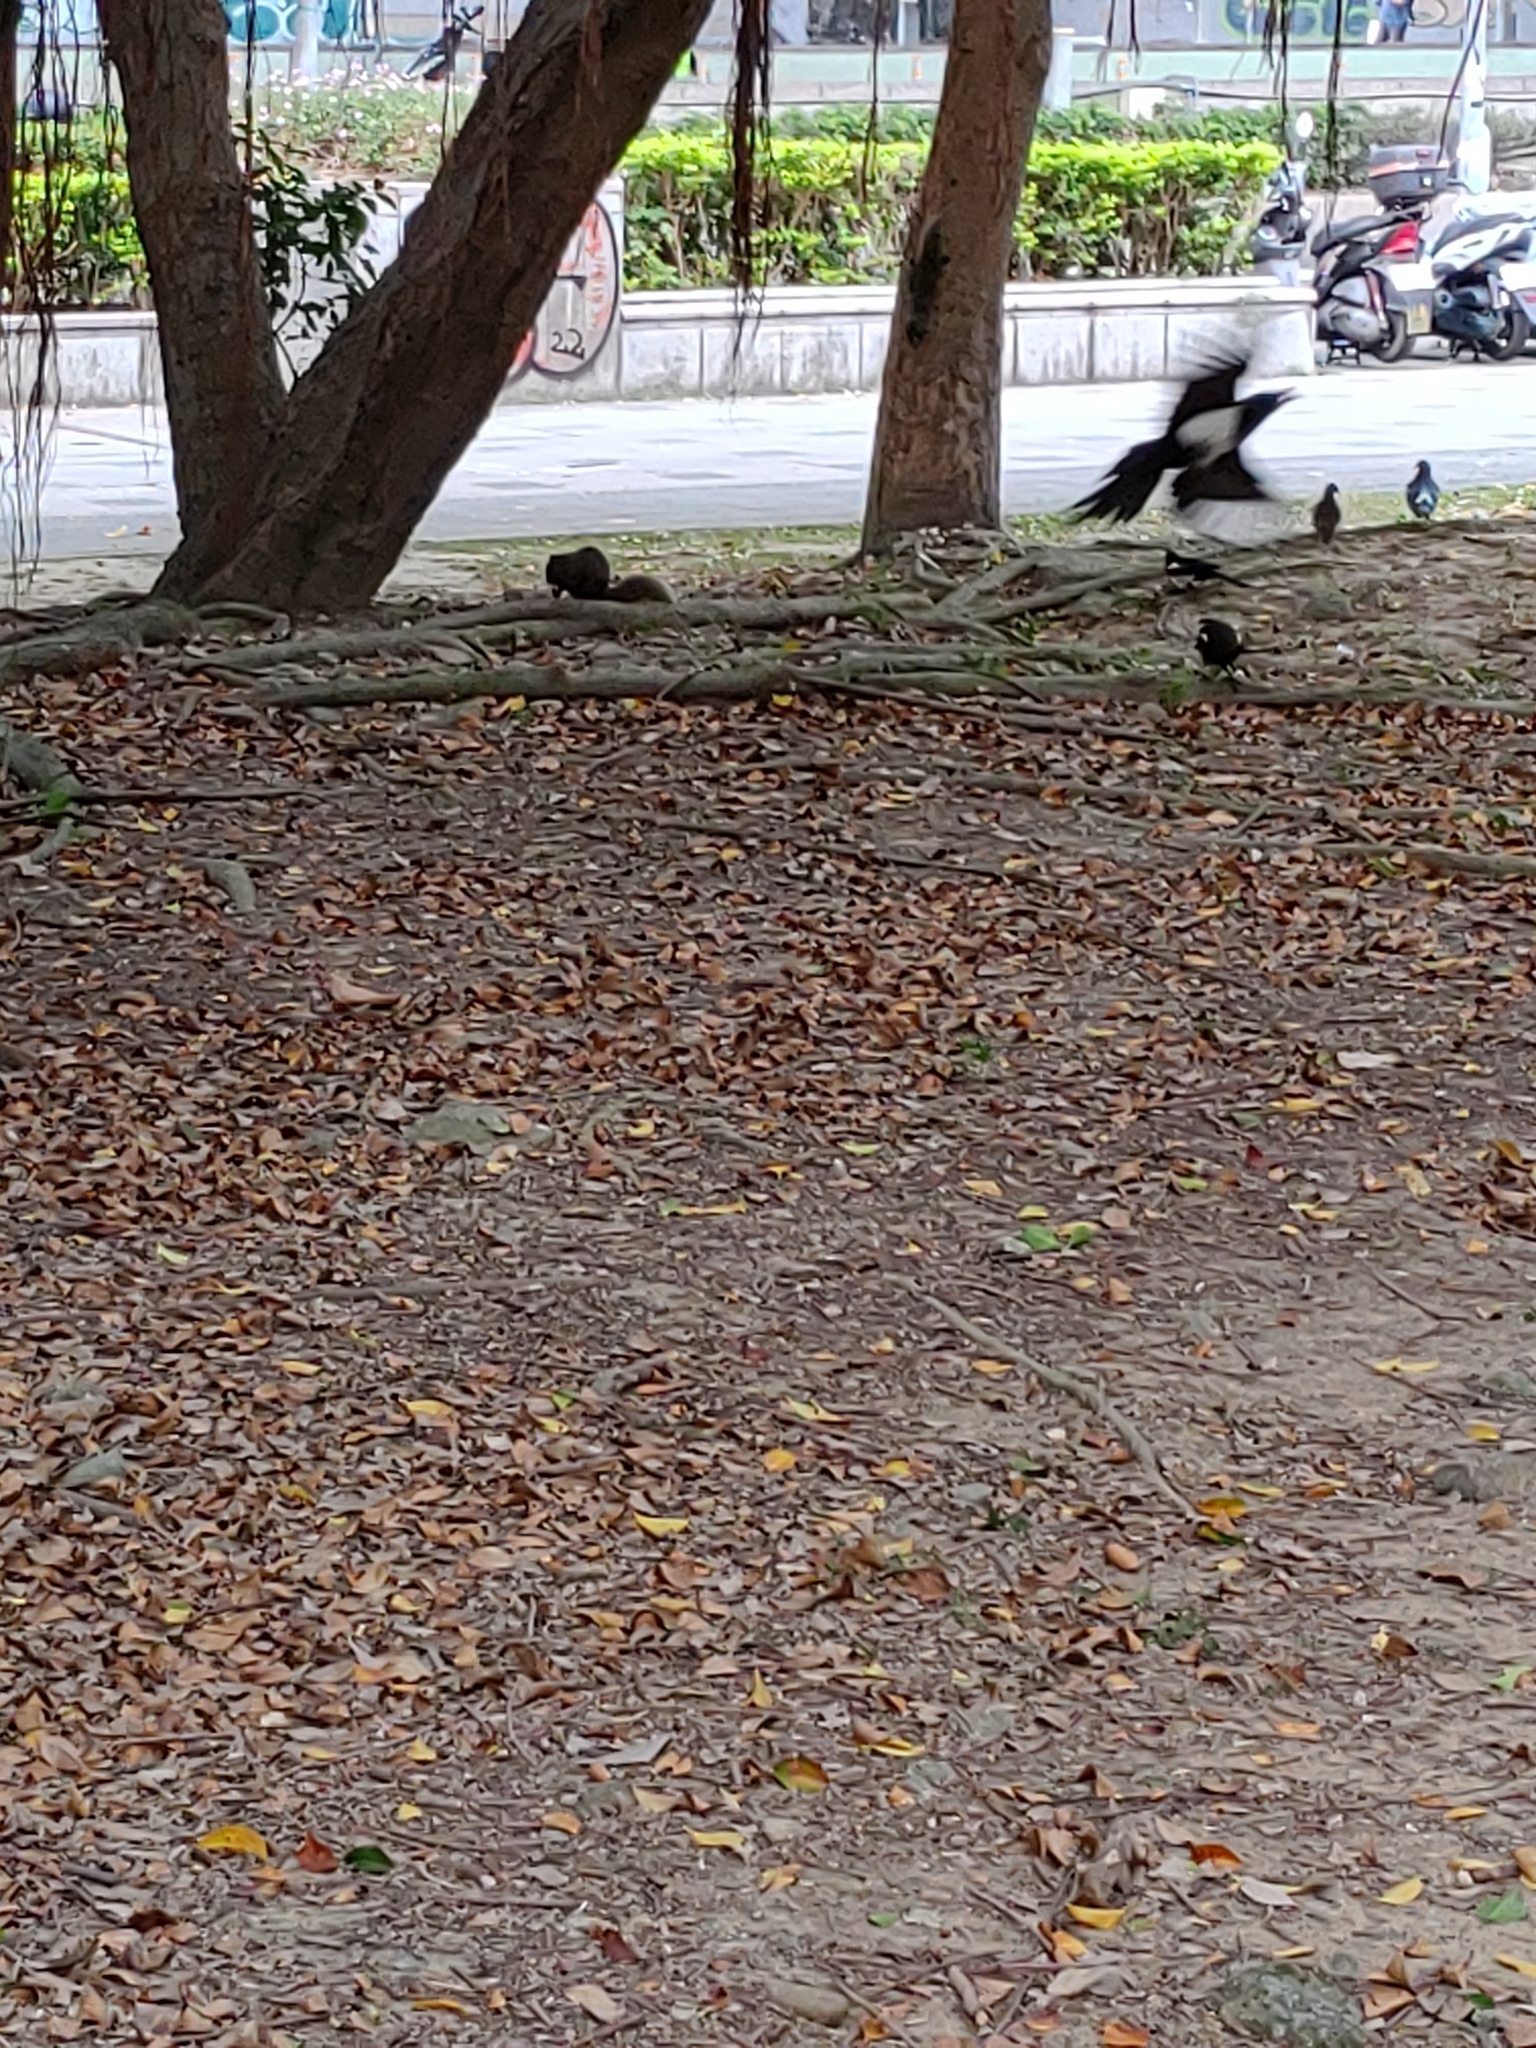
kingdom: Animalia
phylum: Chordata
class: Aves
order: Passeriformes
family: Corvidae
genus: Pica
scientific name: Pica serica
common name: Oriental magpie
